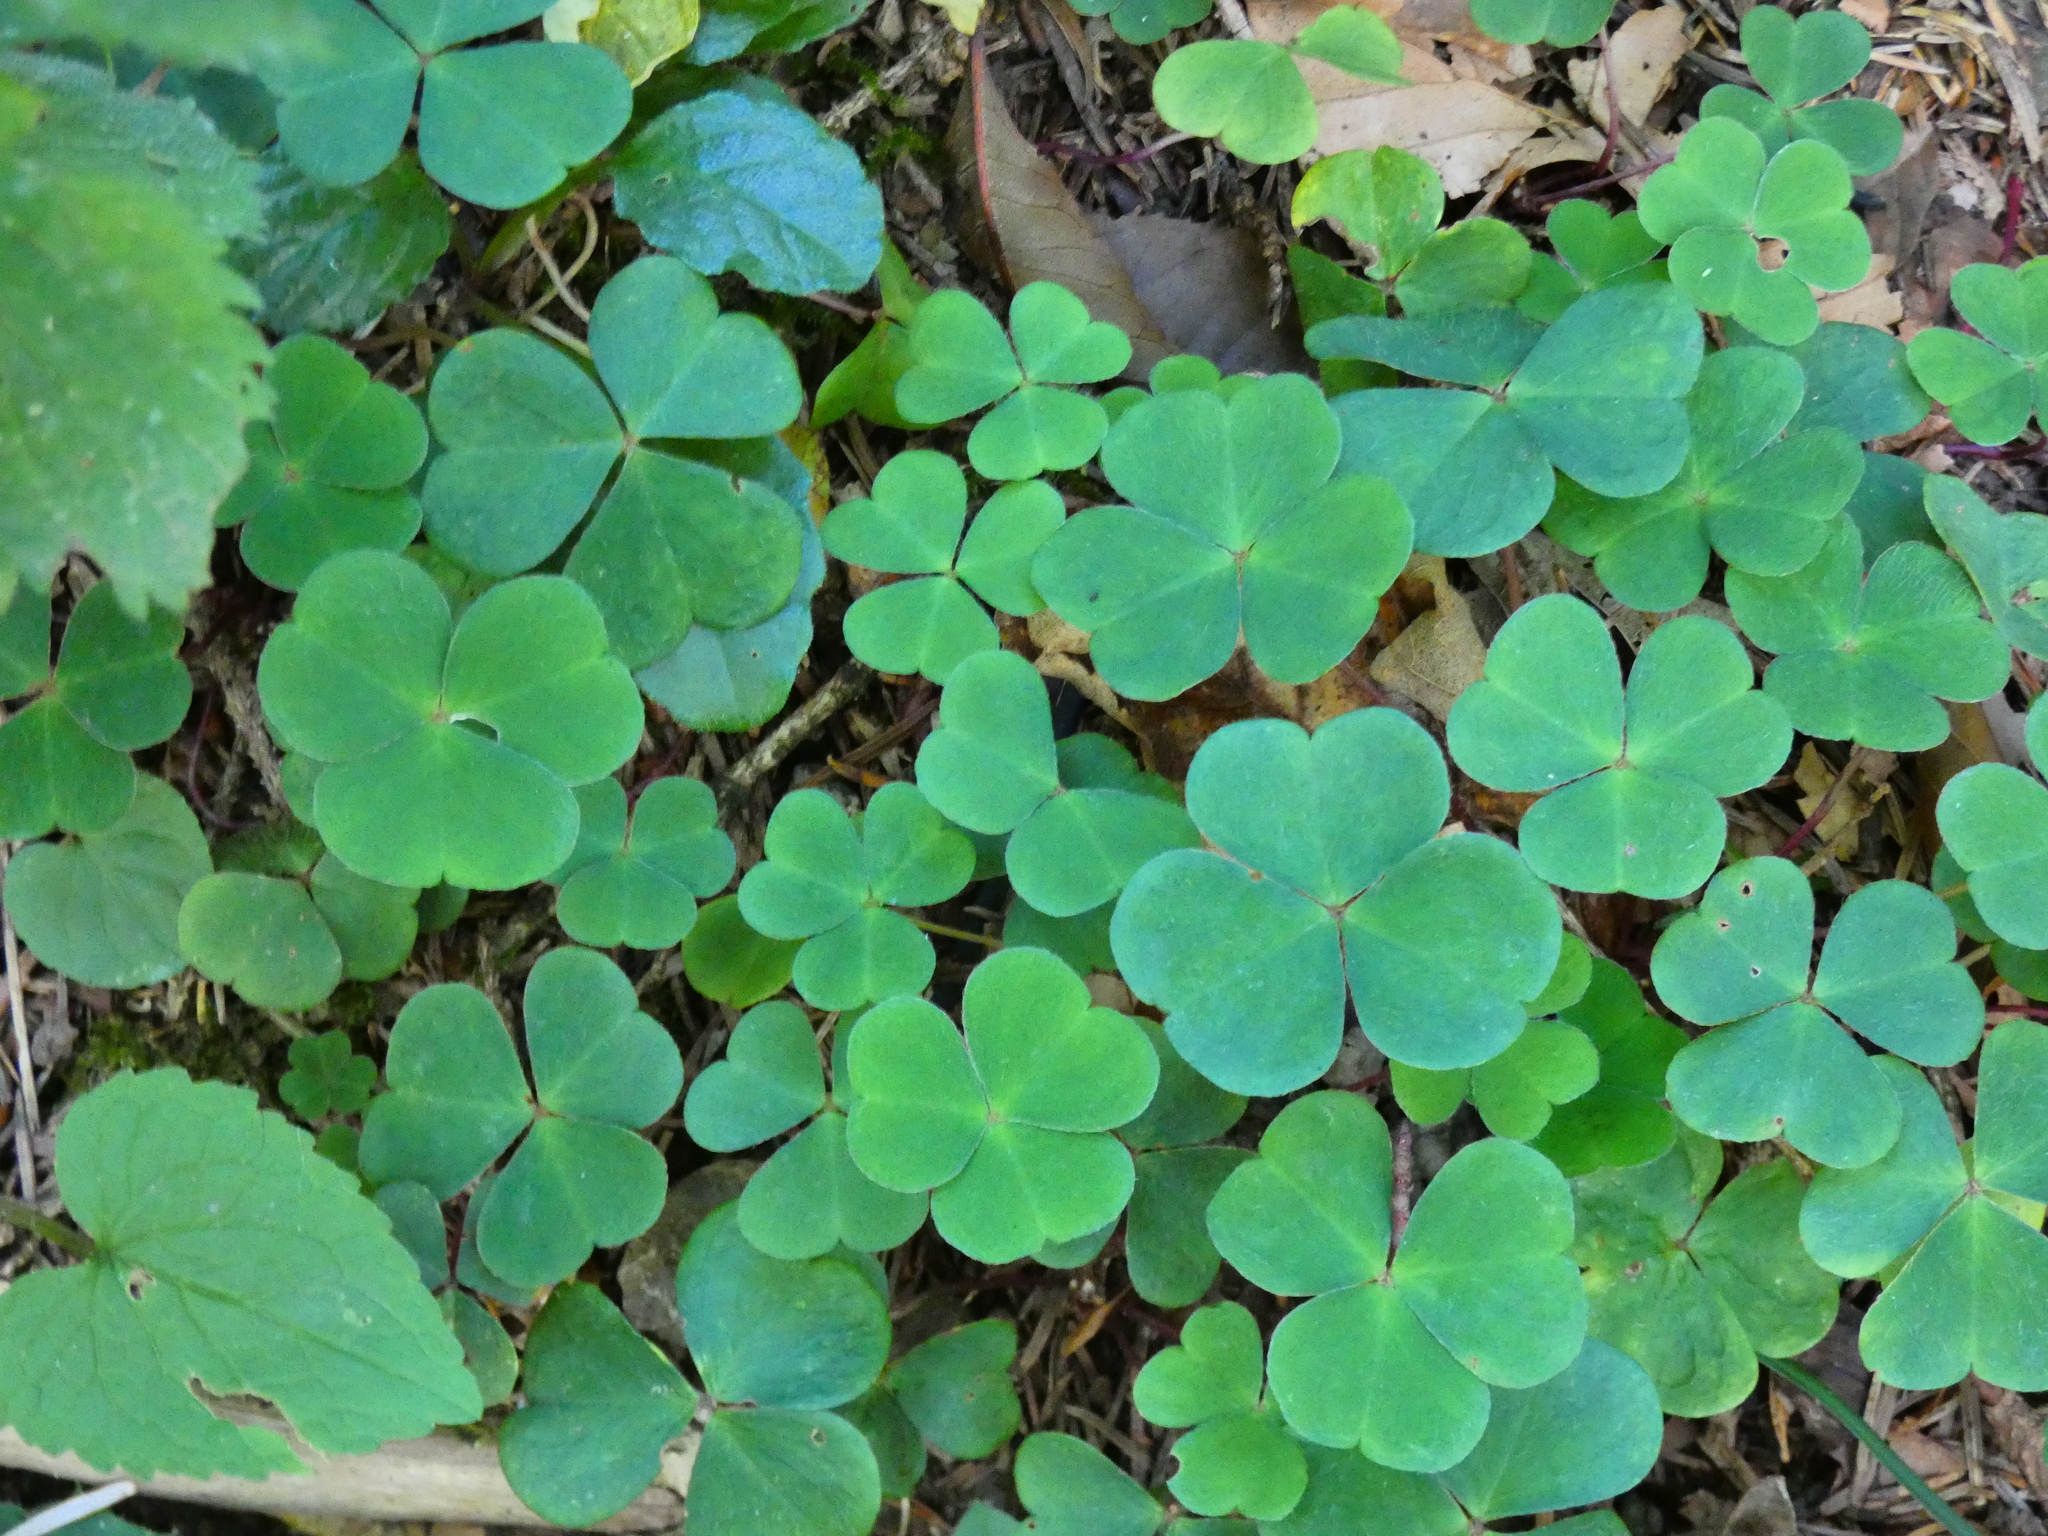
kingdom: Plantae
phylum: Tracheophyta
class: Magnoliopsida
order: Oxalidales
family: Oxalidaceae
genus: Oxalis
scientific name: Oxalis acetosella
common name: Wood-sorrel
